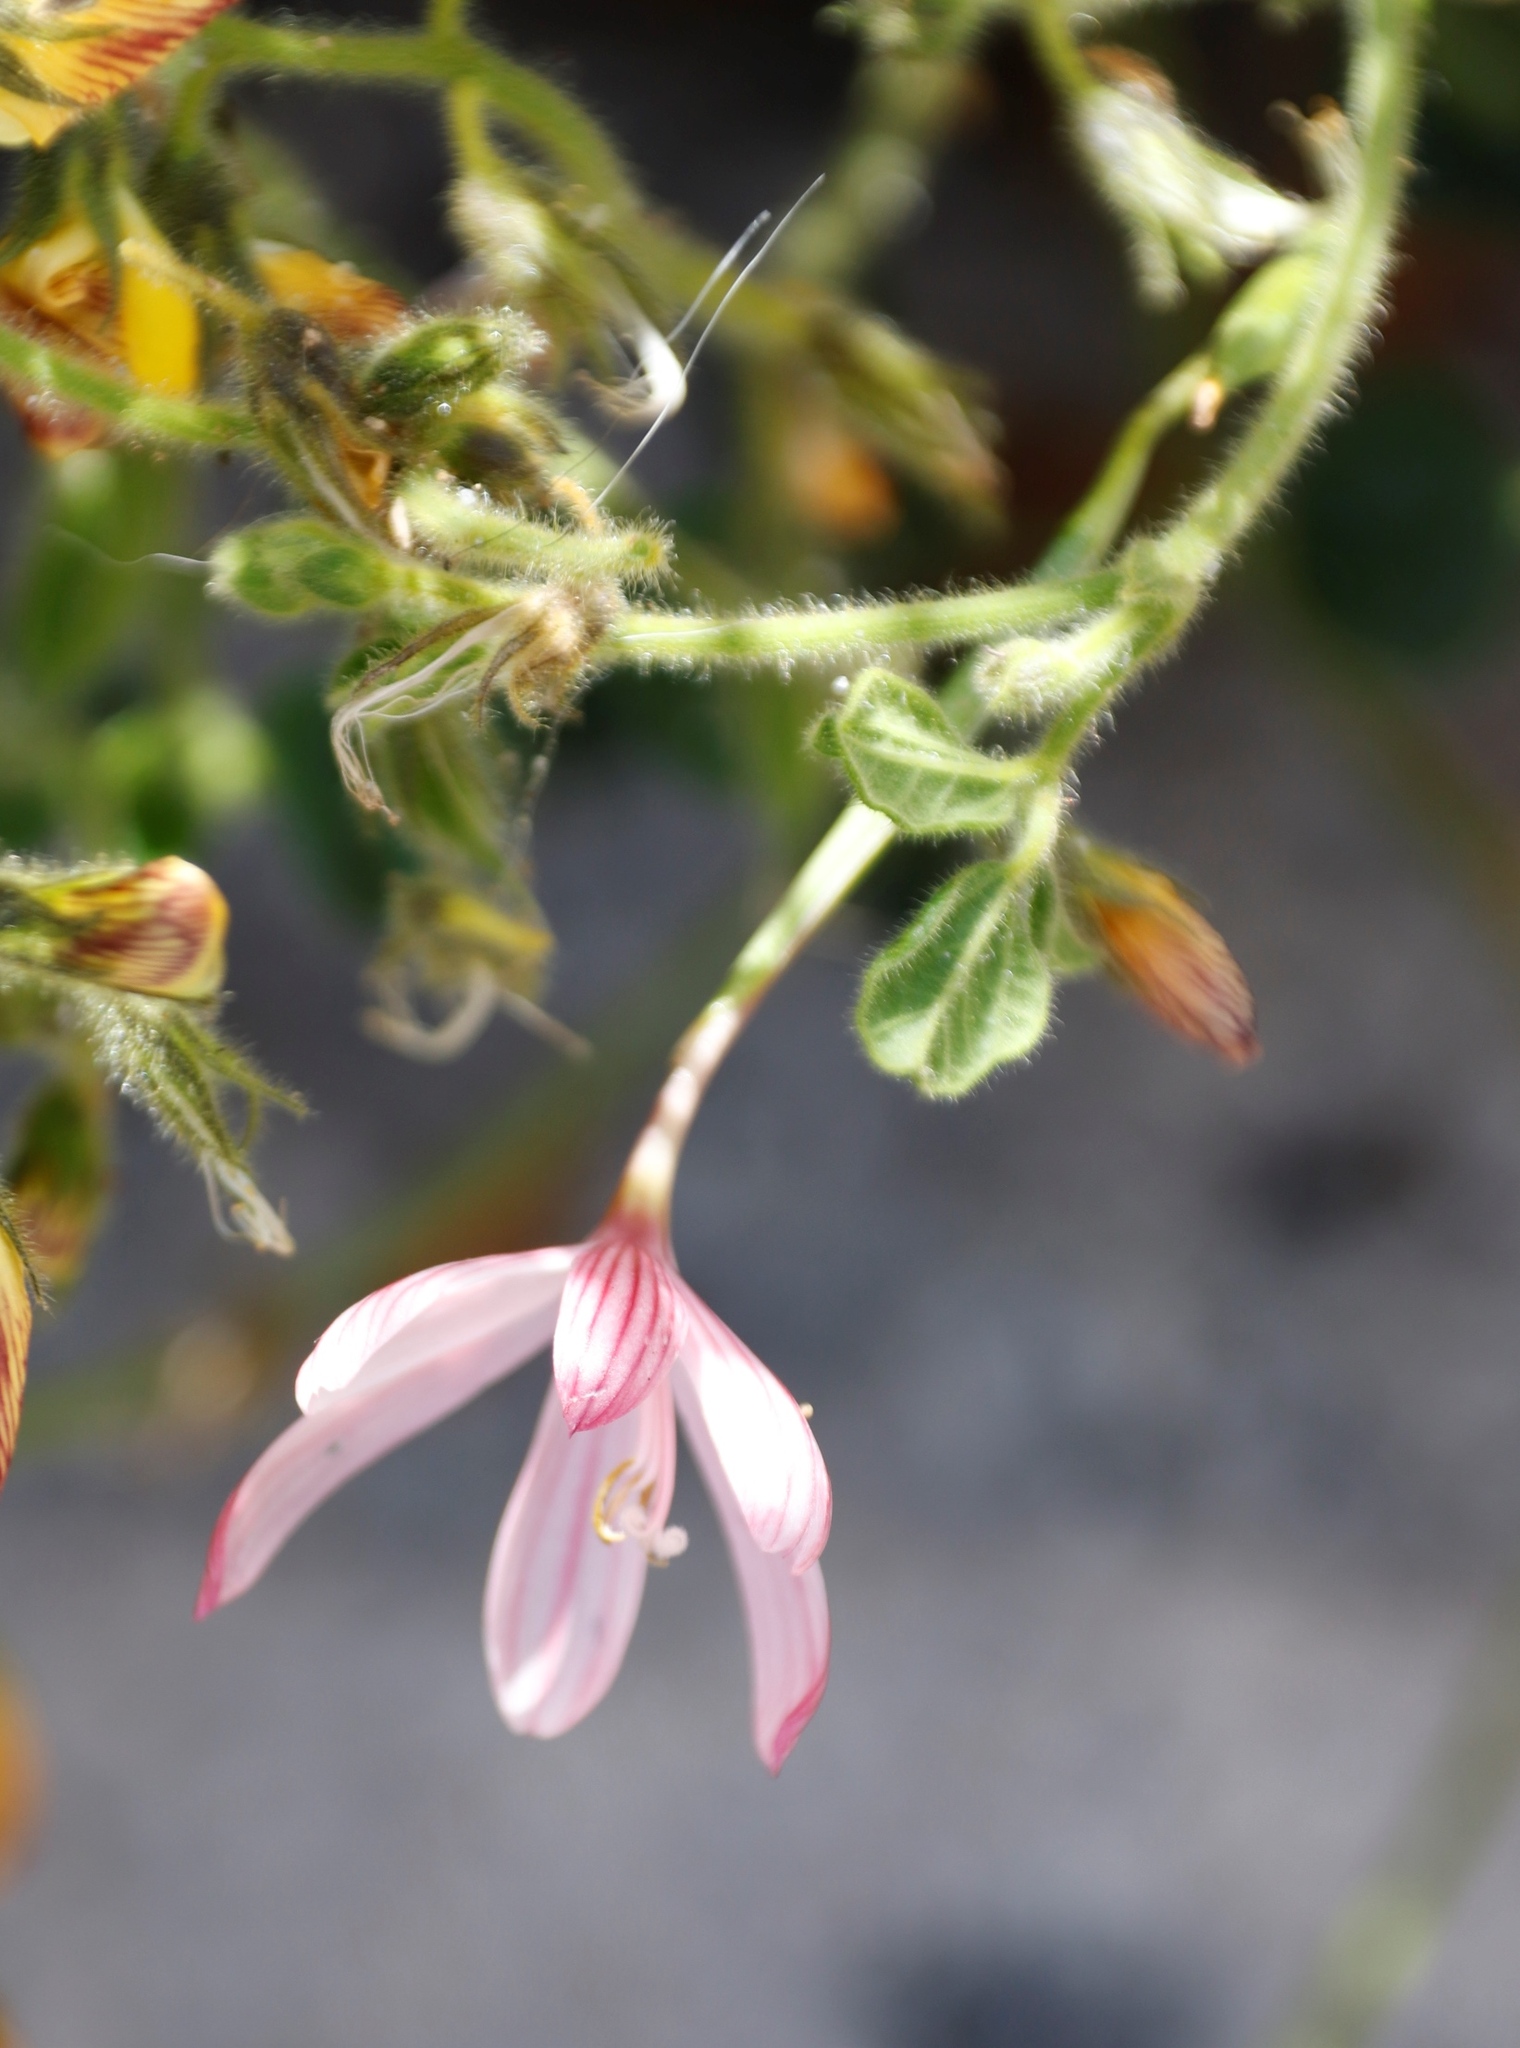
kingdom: Plantae
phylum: Tracheophyta
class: Liliopsida
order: Asparagales
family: Iridaceae
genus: Geissorhiza
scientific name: Geissorhiza bonae-spei
